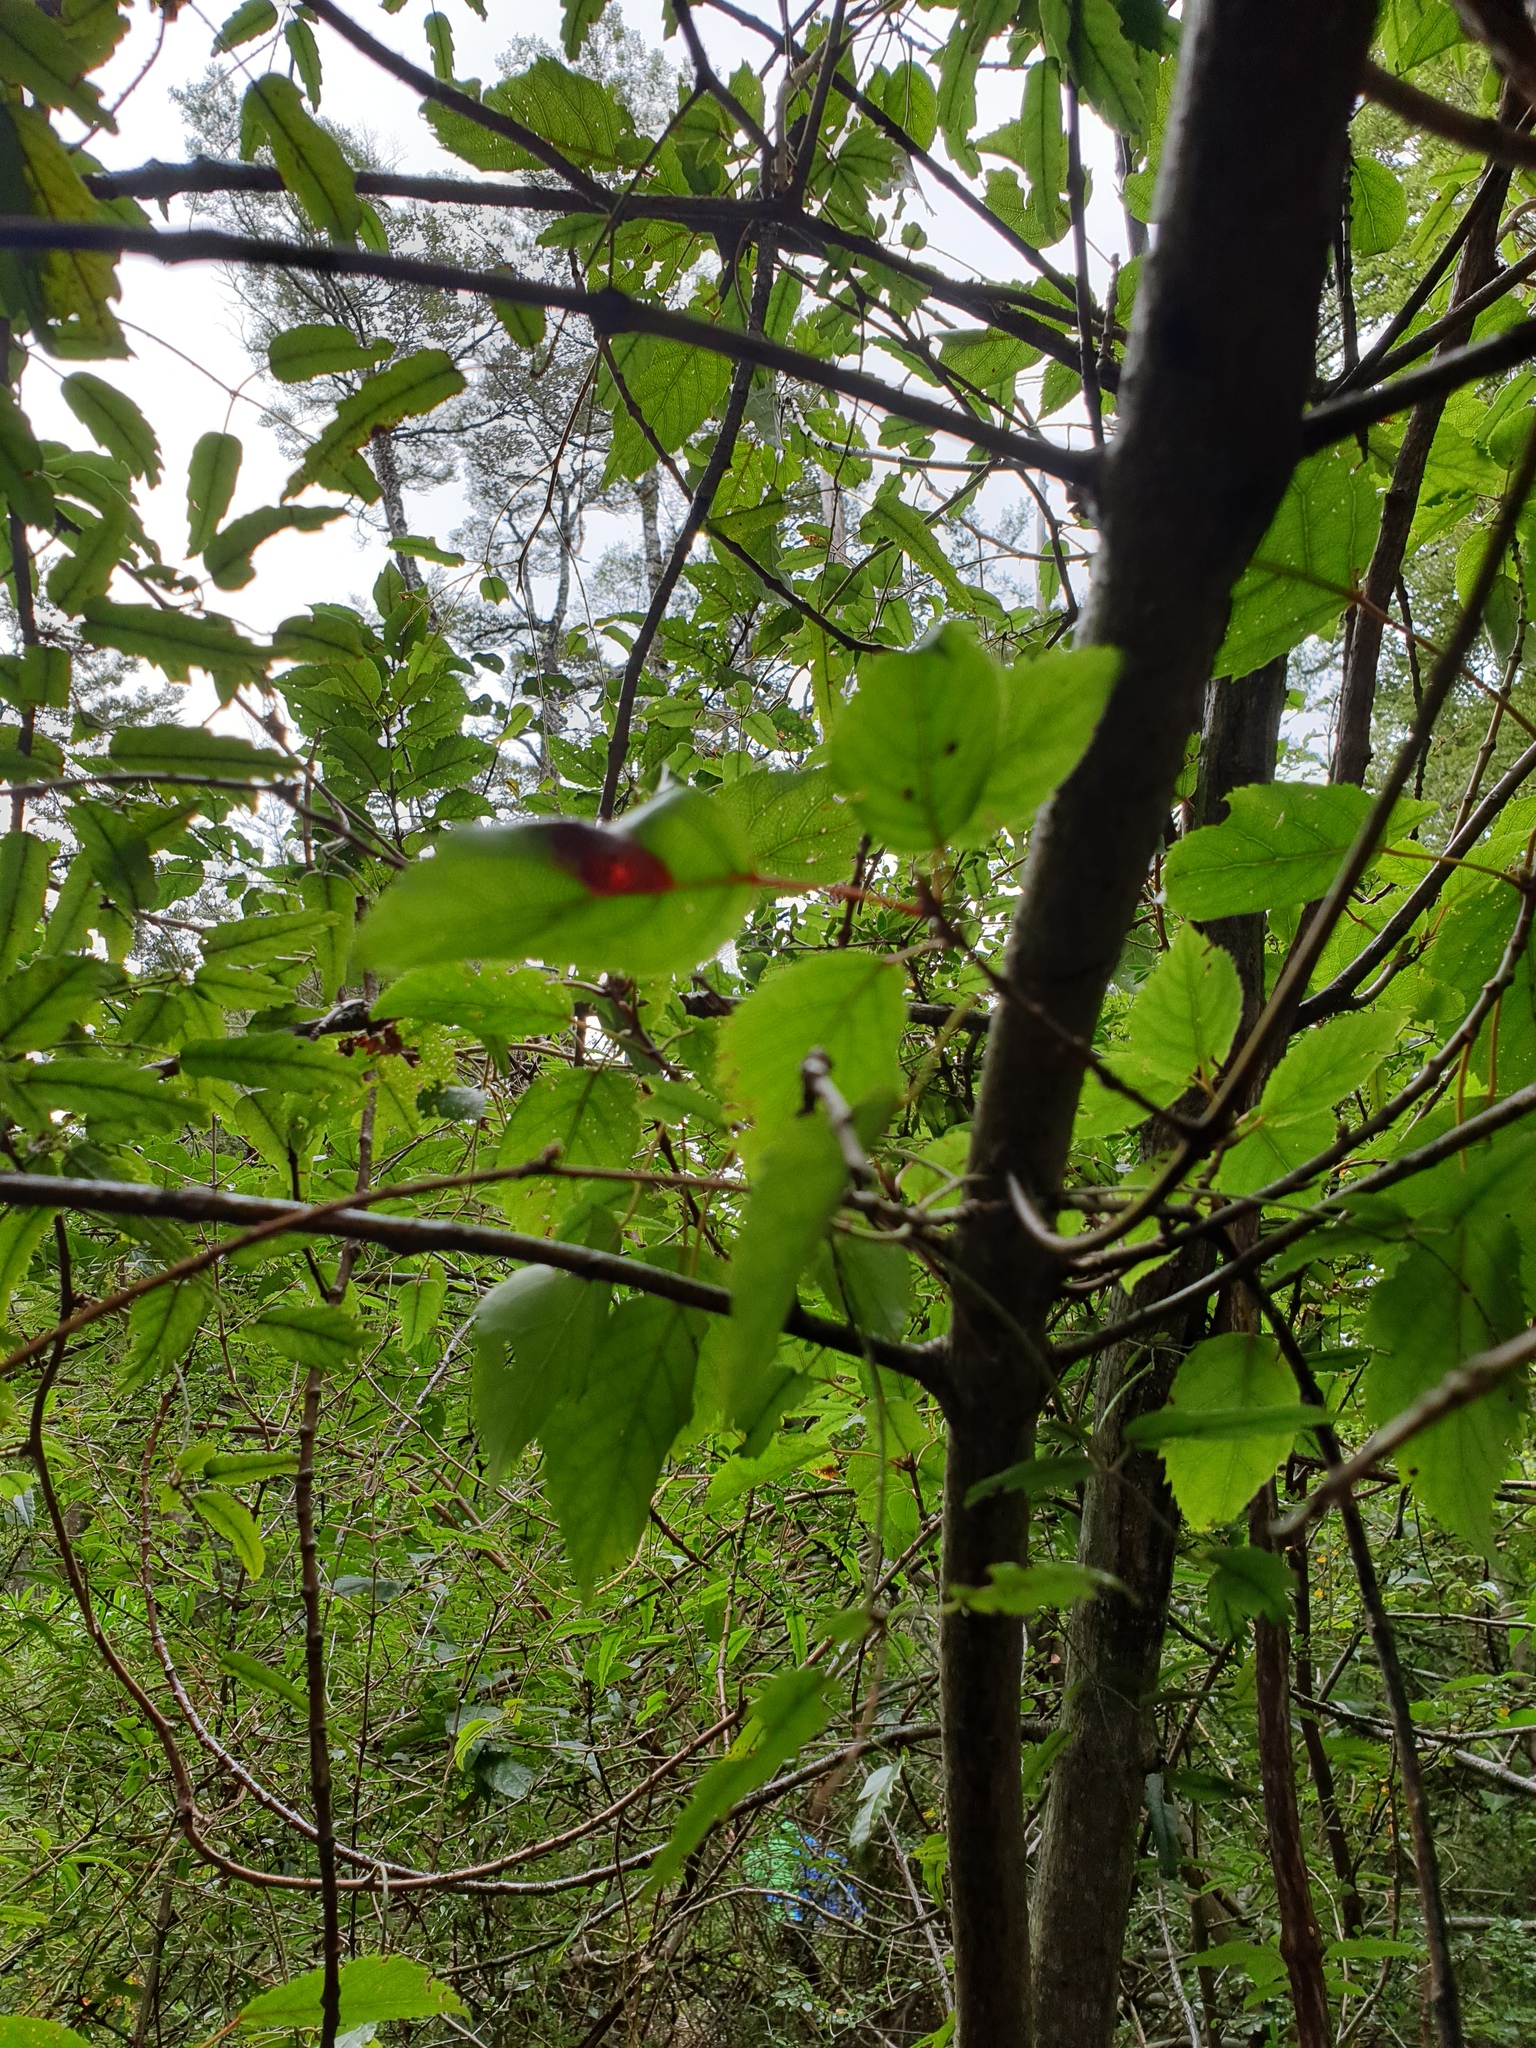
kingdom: Plantae
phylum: Tracheophyta
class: Magnoliopsida
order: Oxalidales
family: Elaeocarpaceae
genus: Aristotelia
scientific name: Aristotelia serrata
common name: New zealand wineberry
